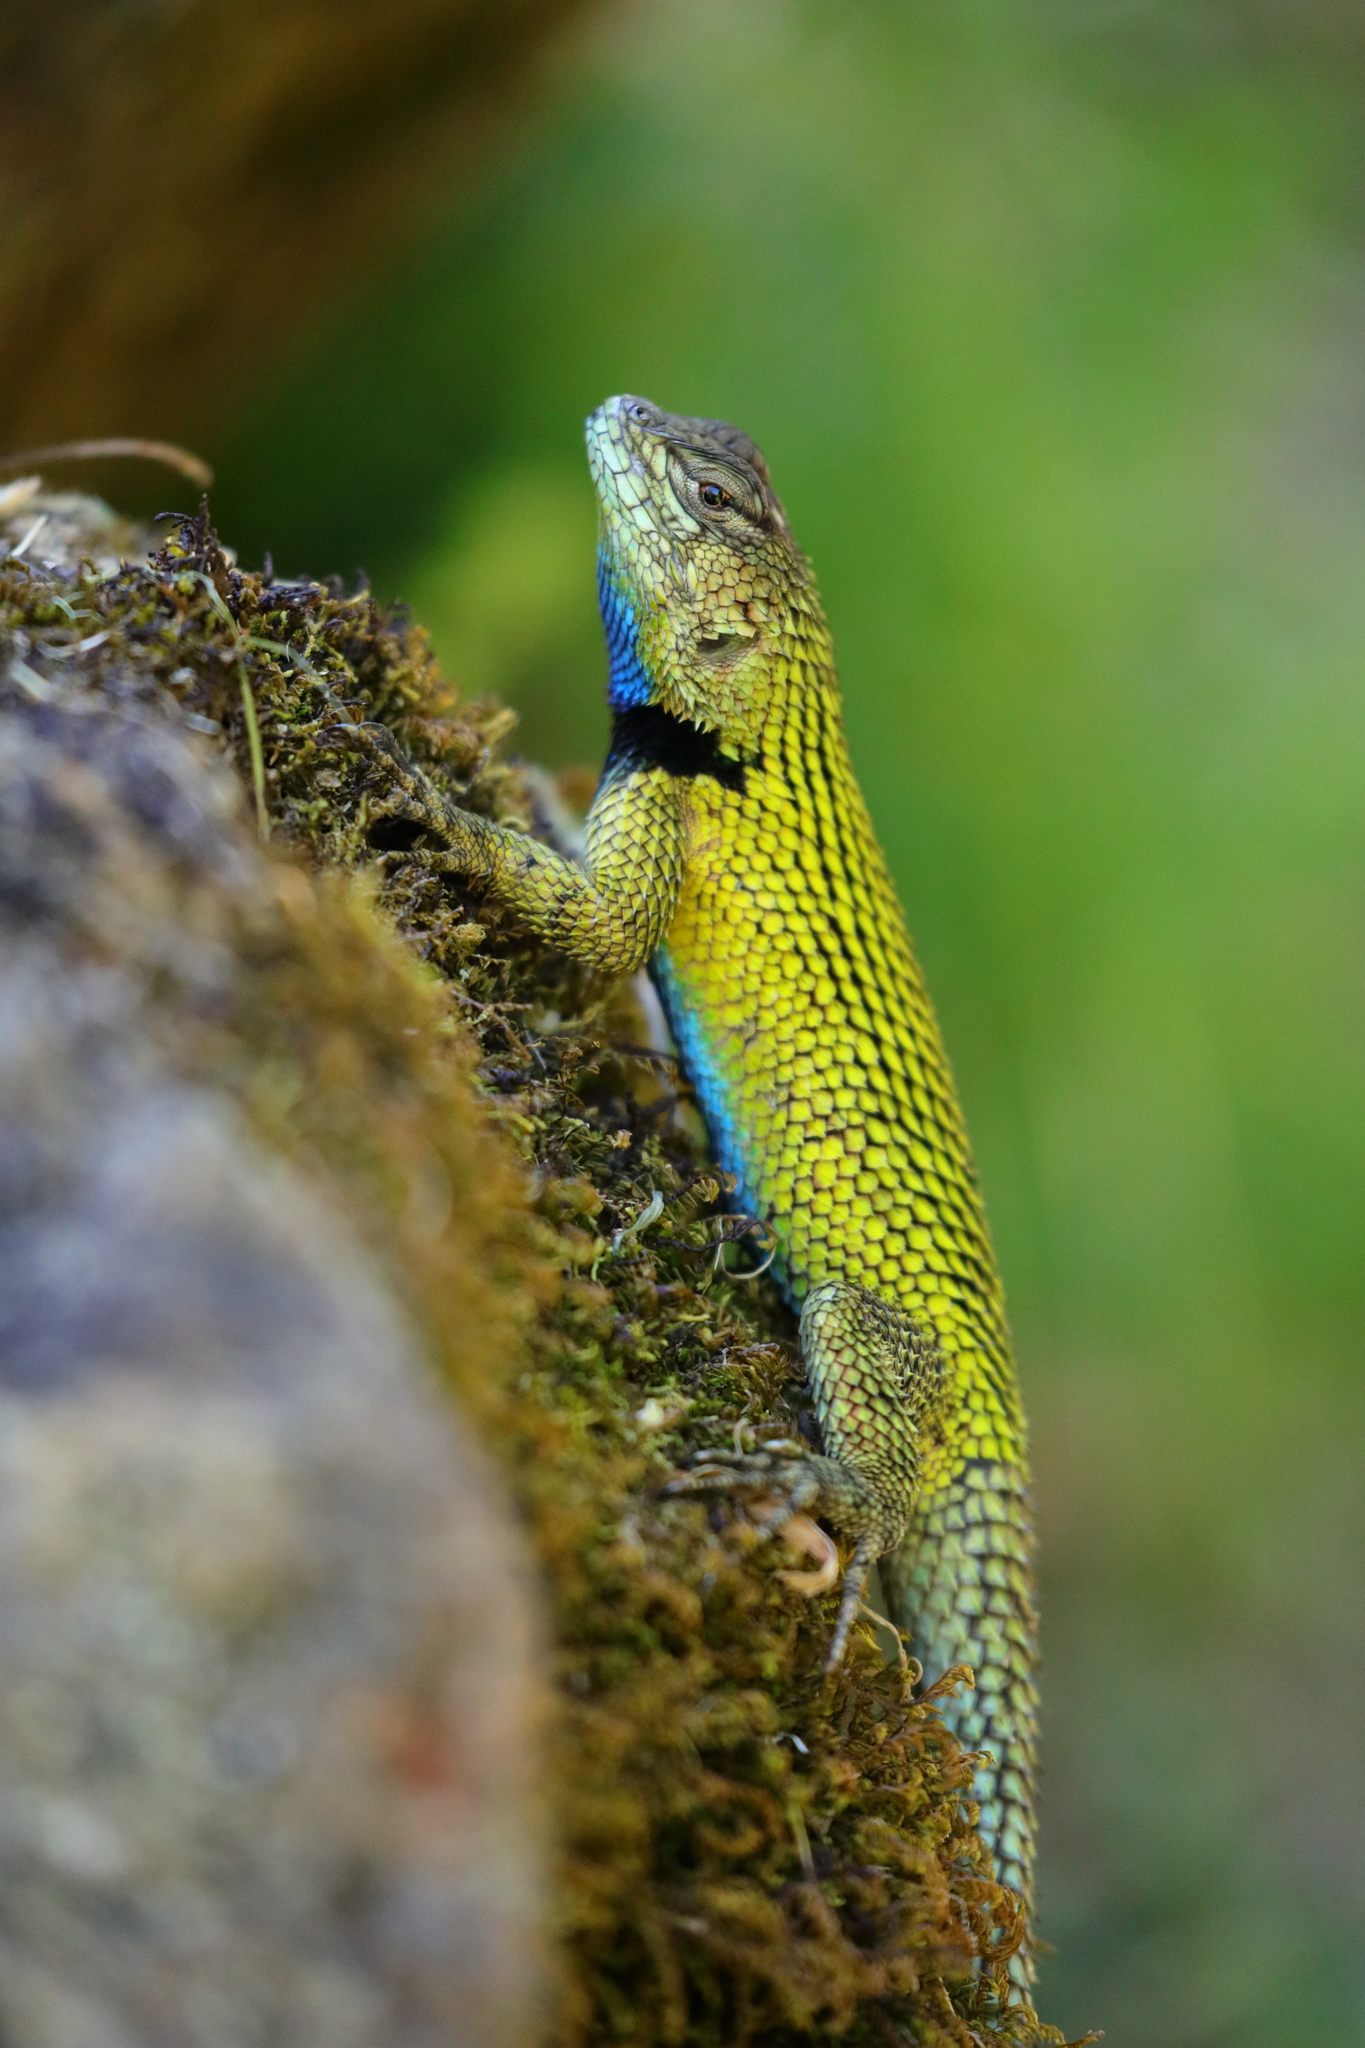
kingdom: Animalia
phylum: Chordata
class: Squamata
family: Phrynosomatidae
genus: Sceloporus
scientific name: Sceloporus malachiticus
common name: Green spiny lizard
